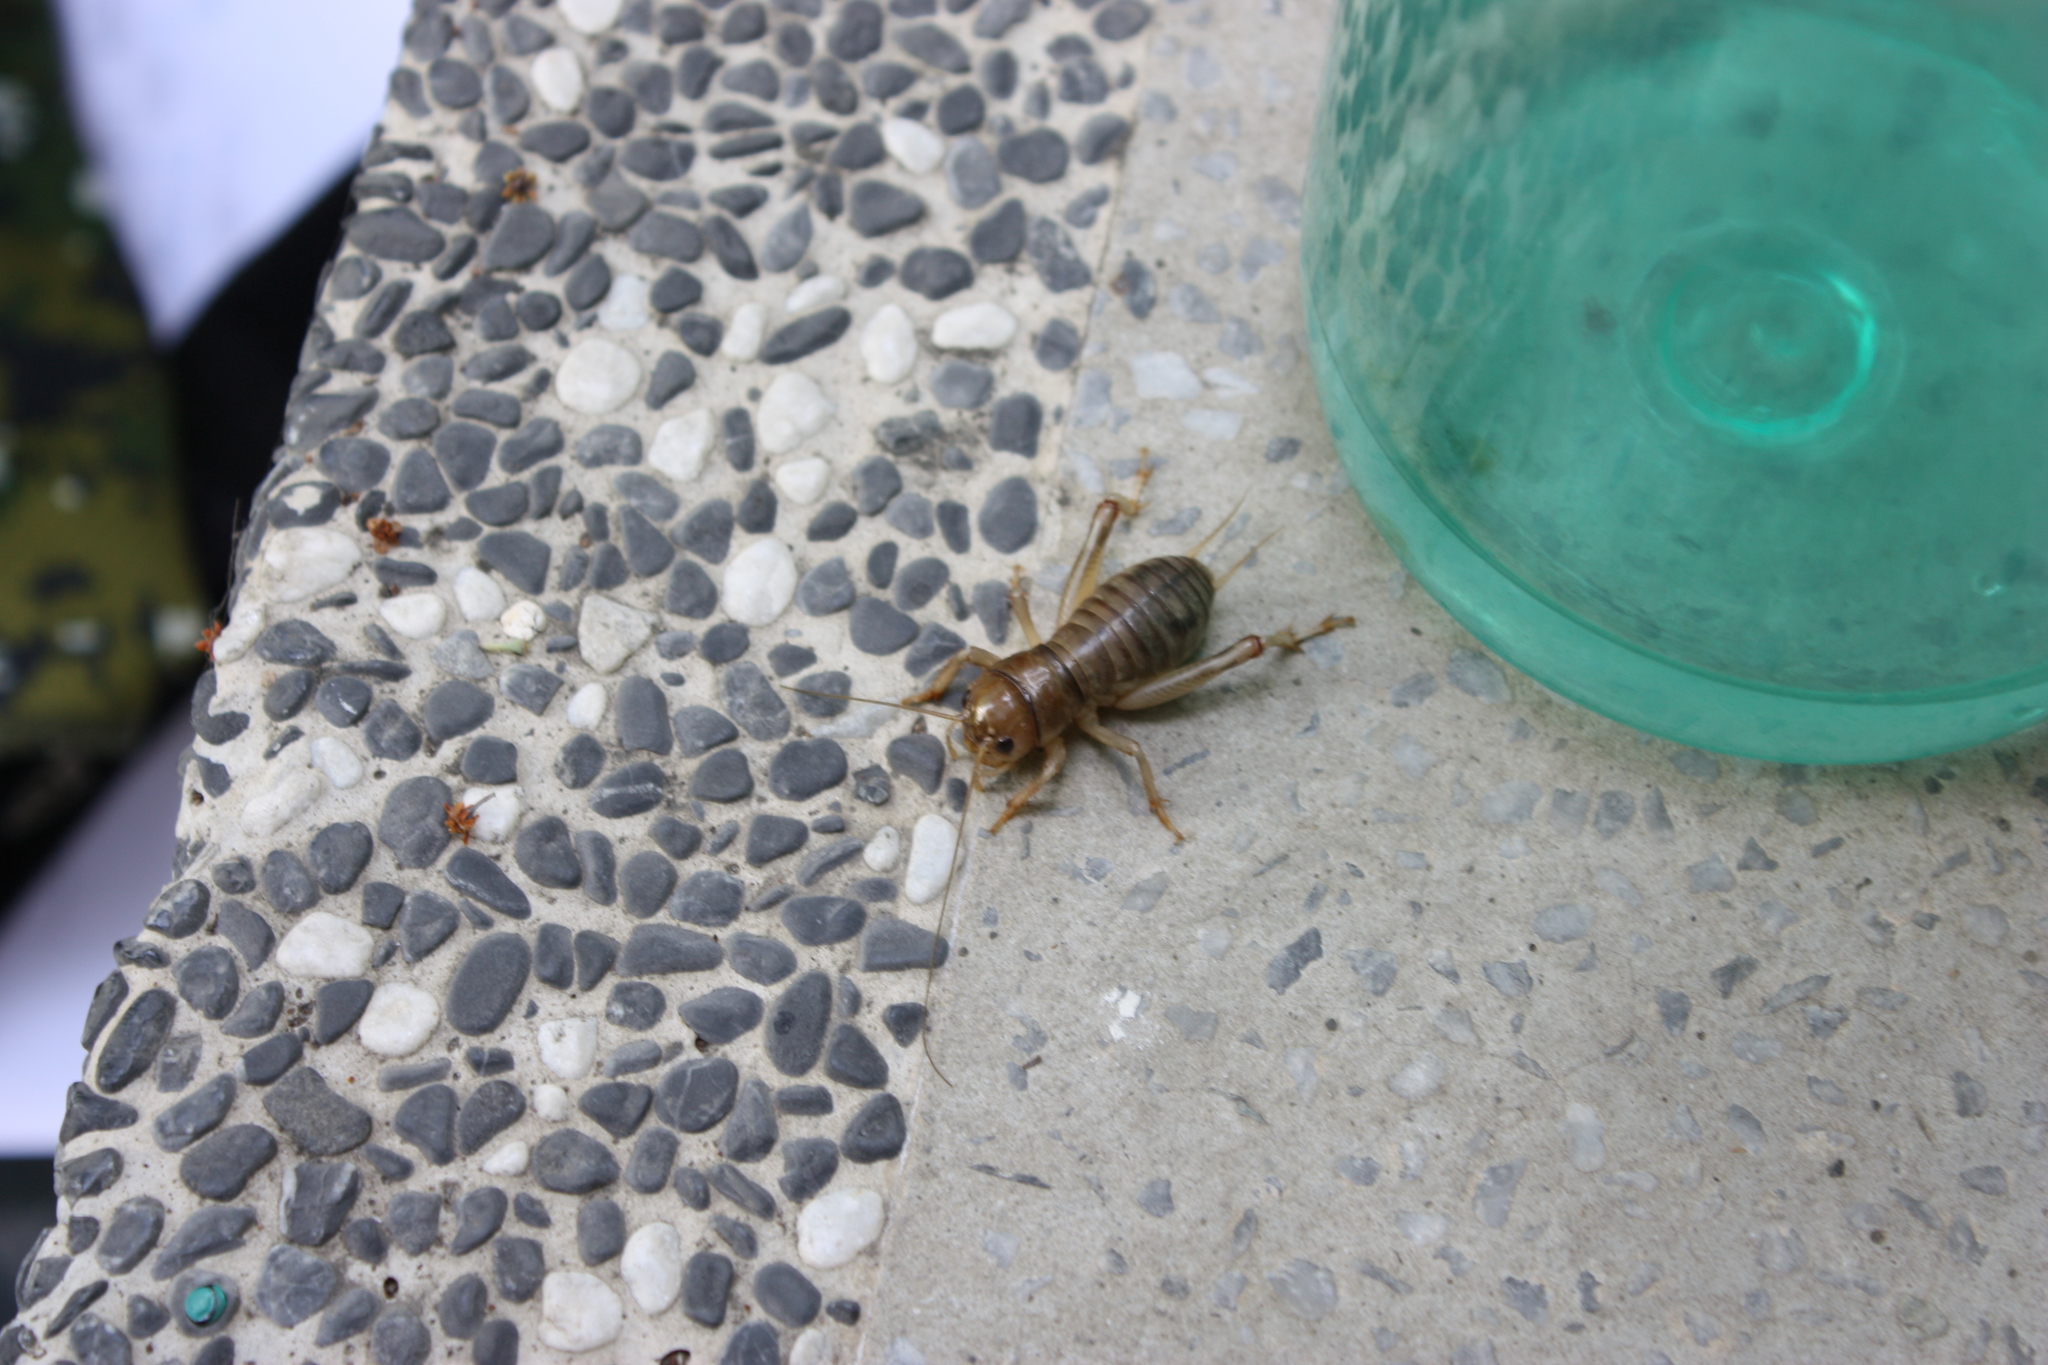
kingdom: Animalia
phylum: Arthropoda
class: Insecta
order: Orthoptera
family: Gryllidae
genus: Tarbinskiellus
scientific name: Tarbinskiellus portentosus
